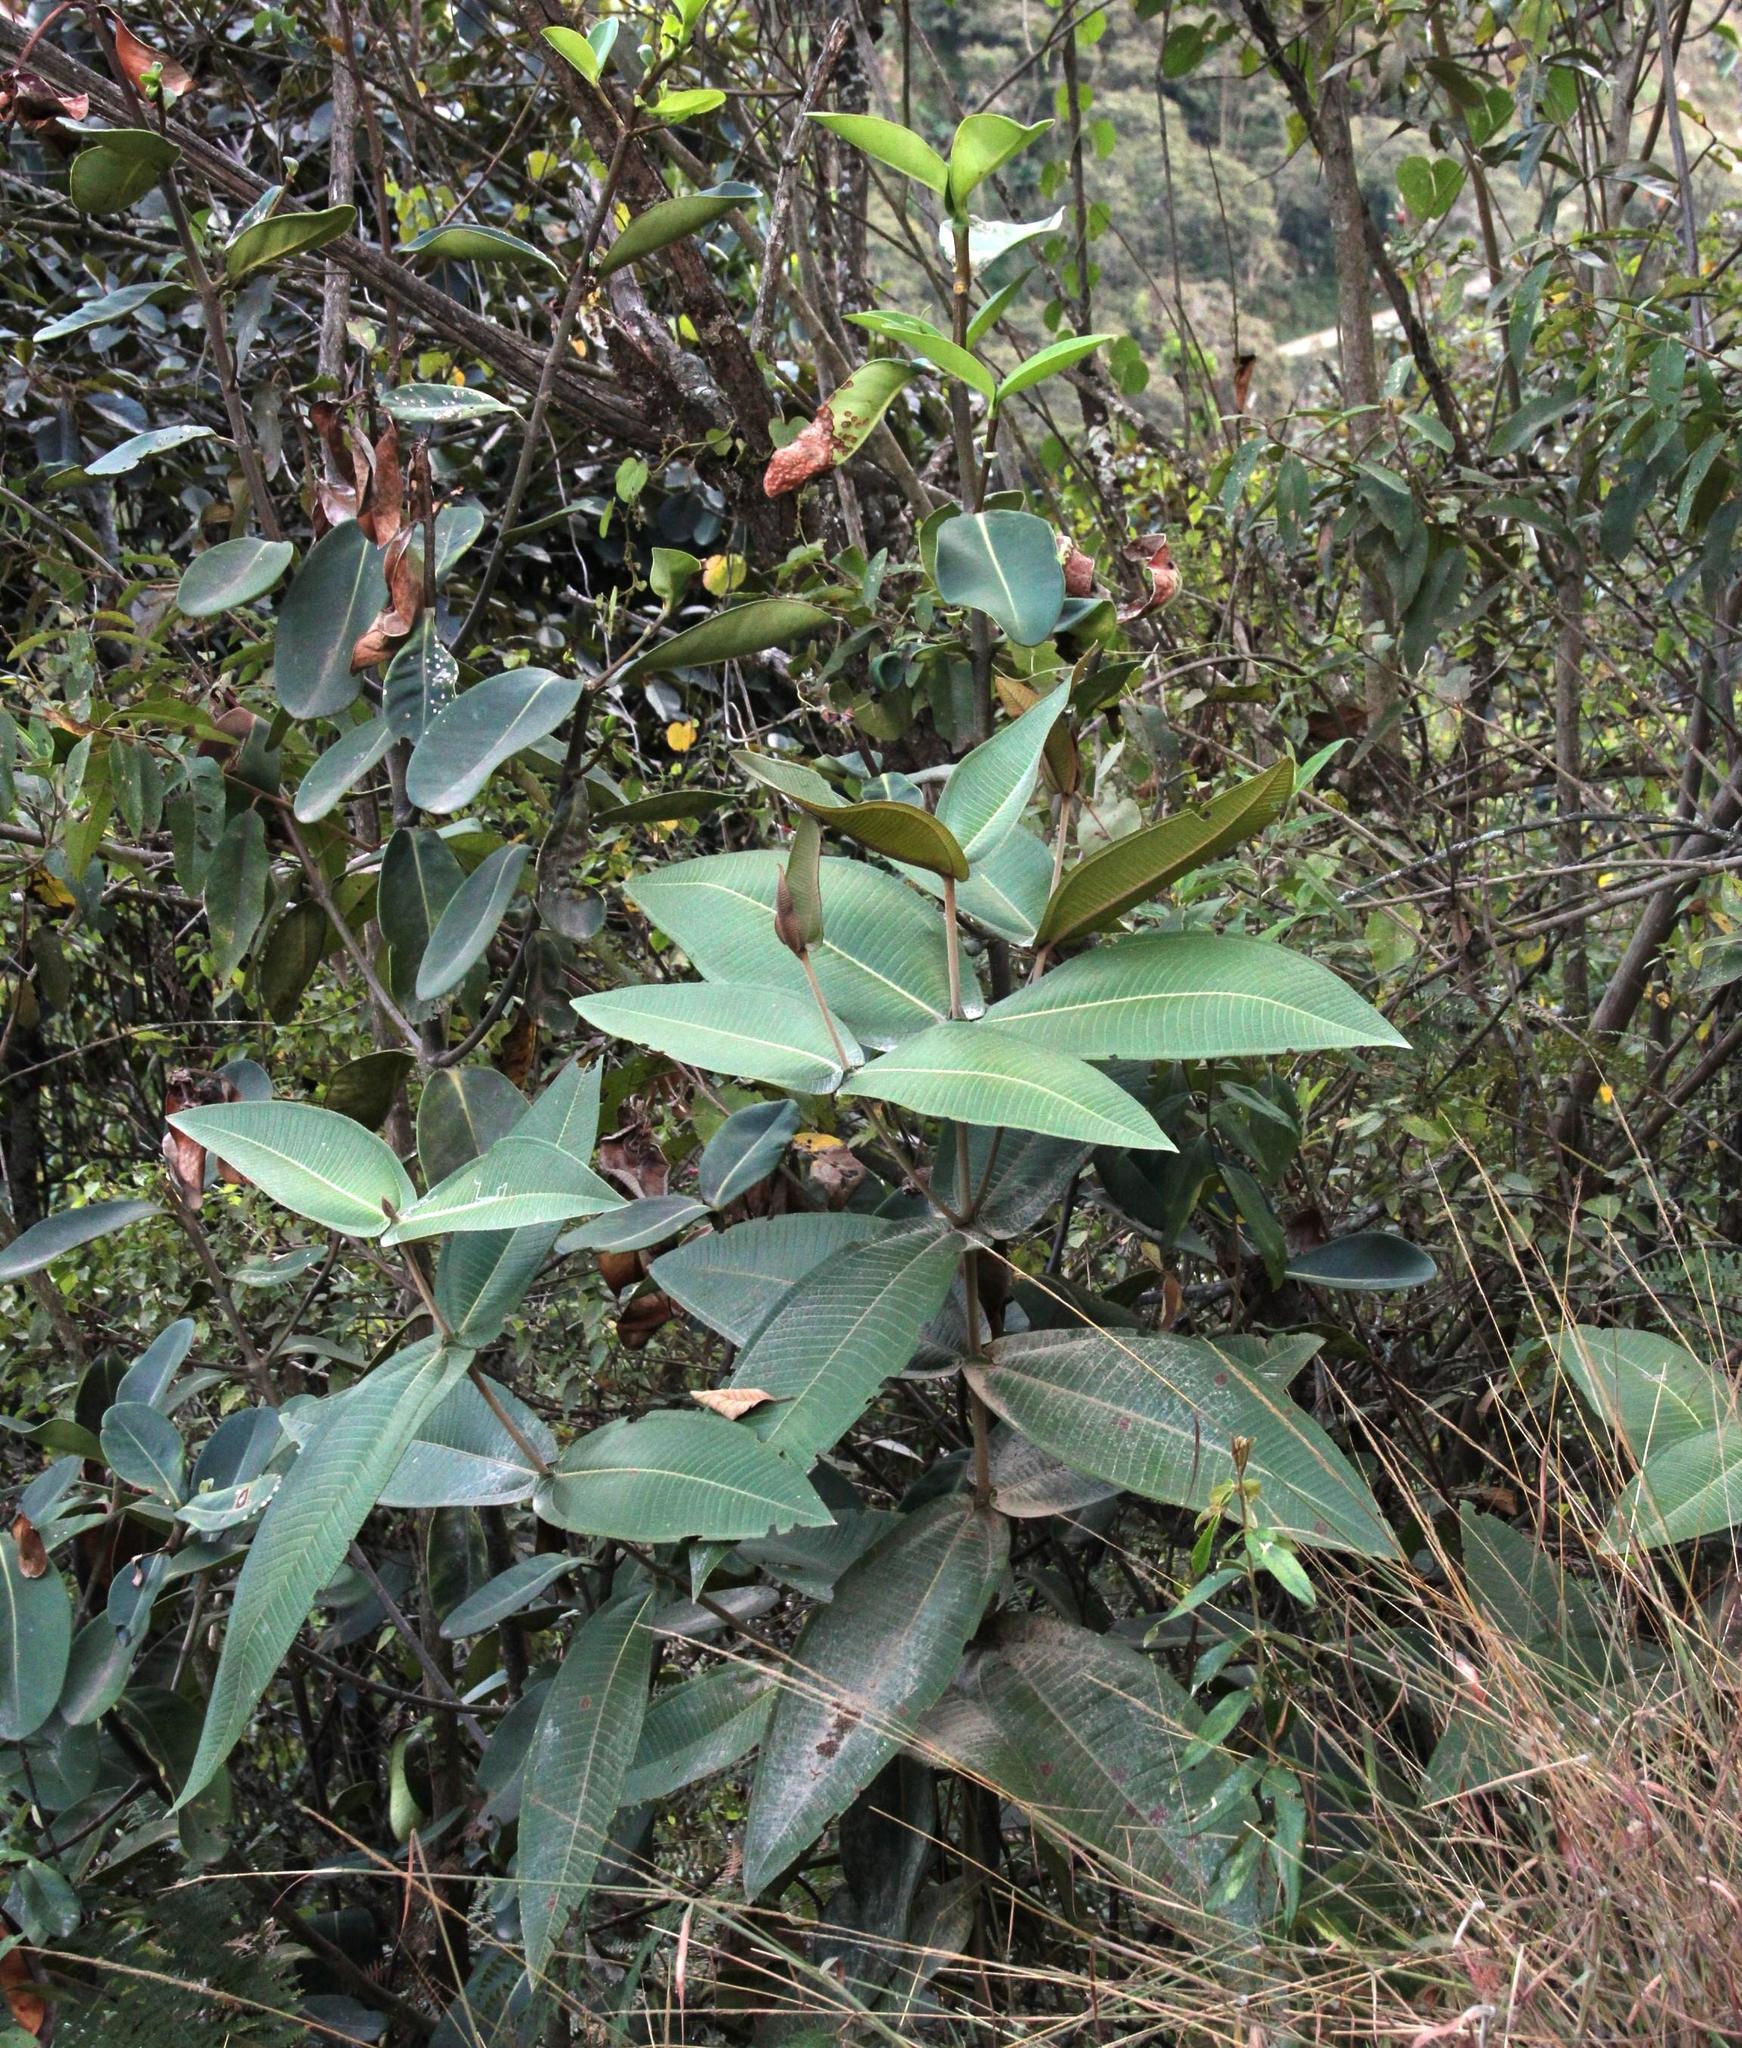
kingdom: Plantae
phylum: Tracheophyta
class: Magnoliopsida
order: Myrtales
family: Melastomataceae
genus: Miconia
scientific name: Miconia dipsacea
